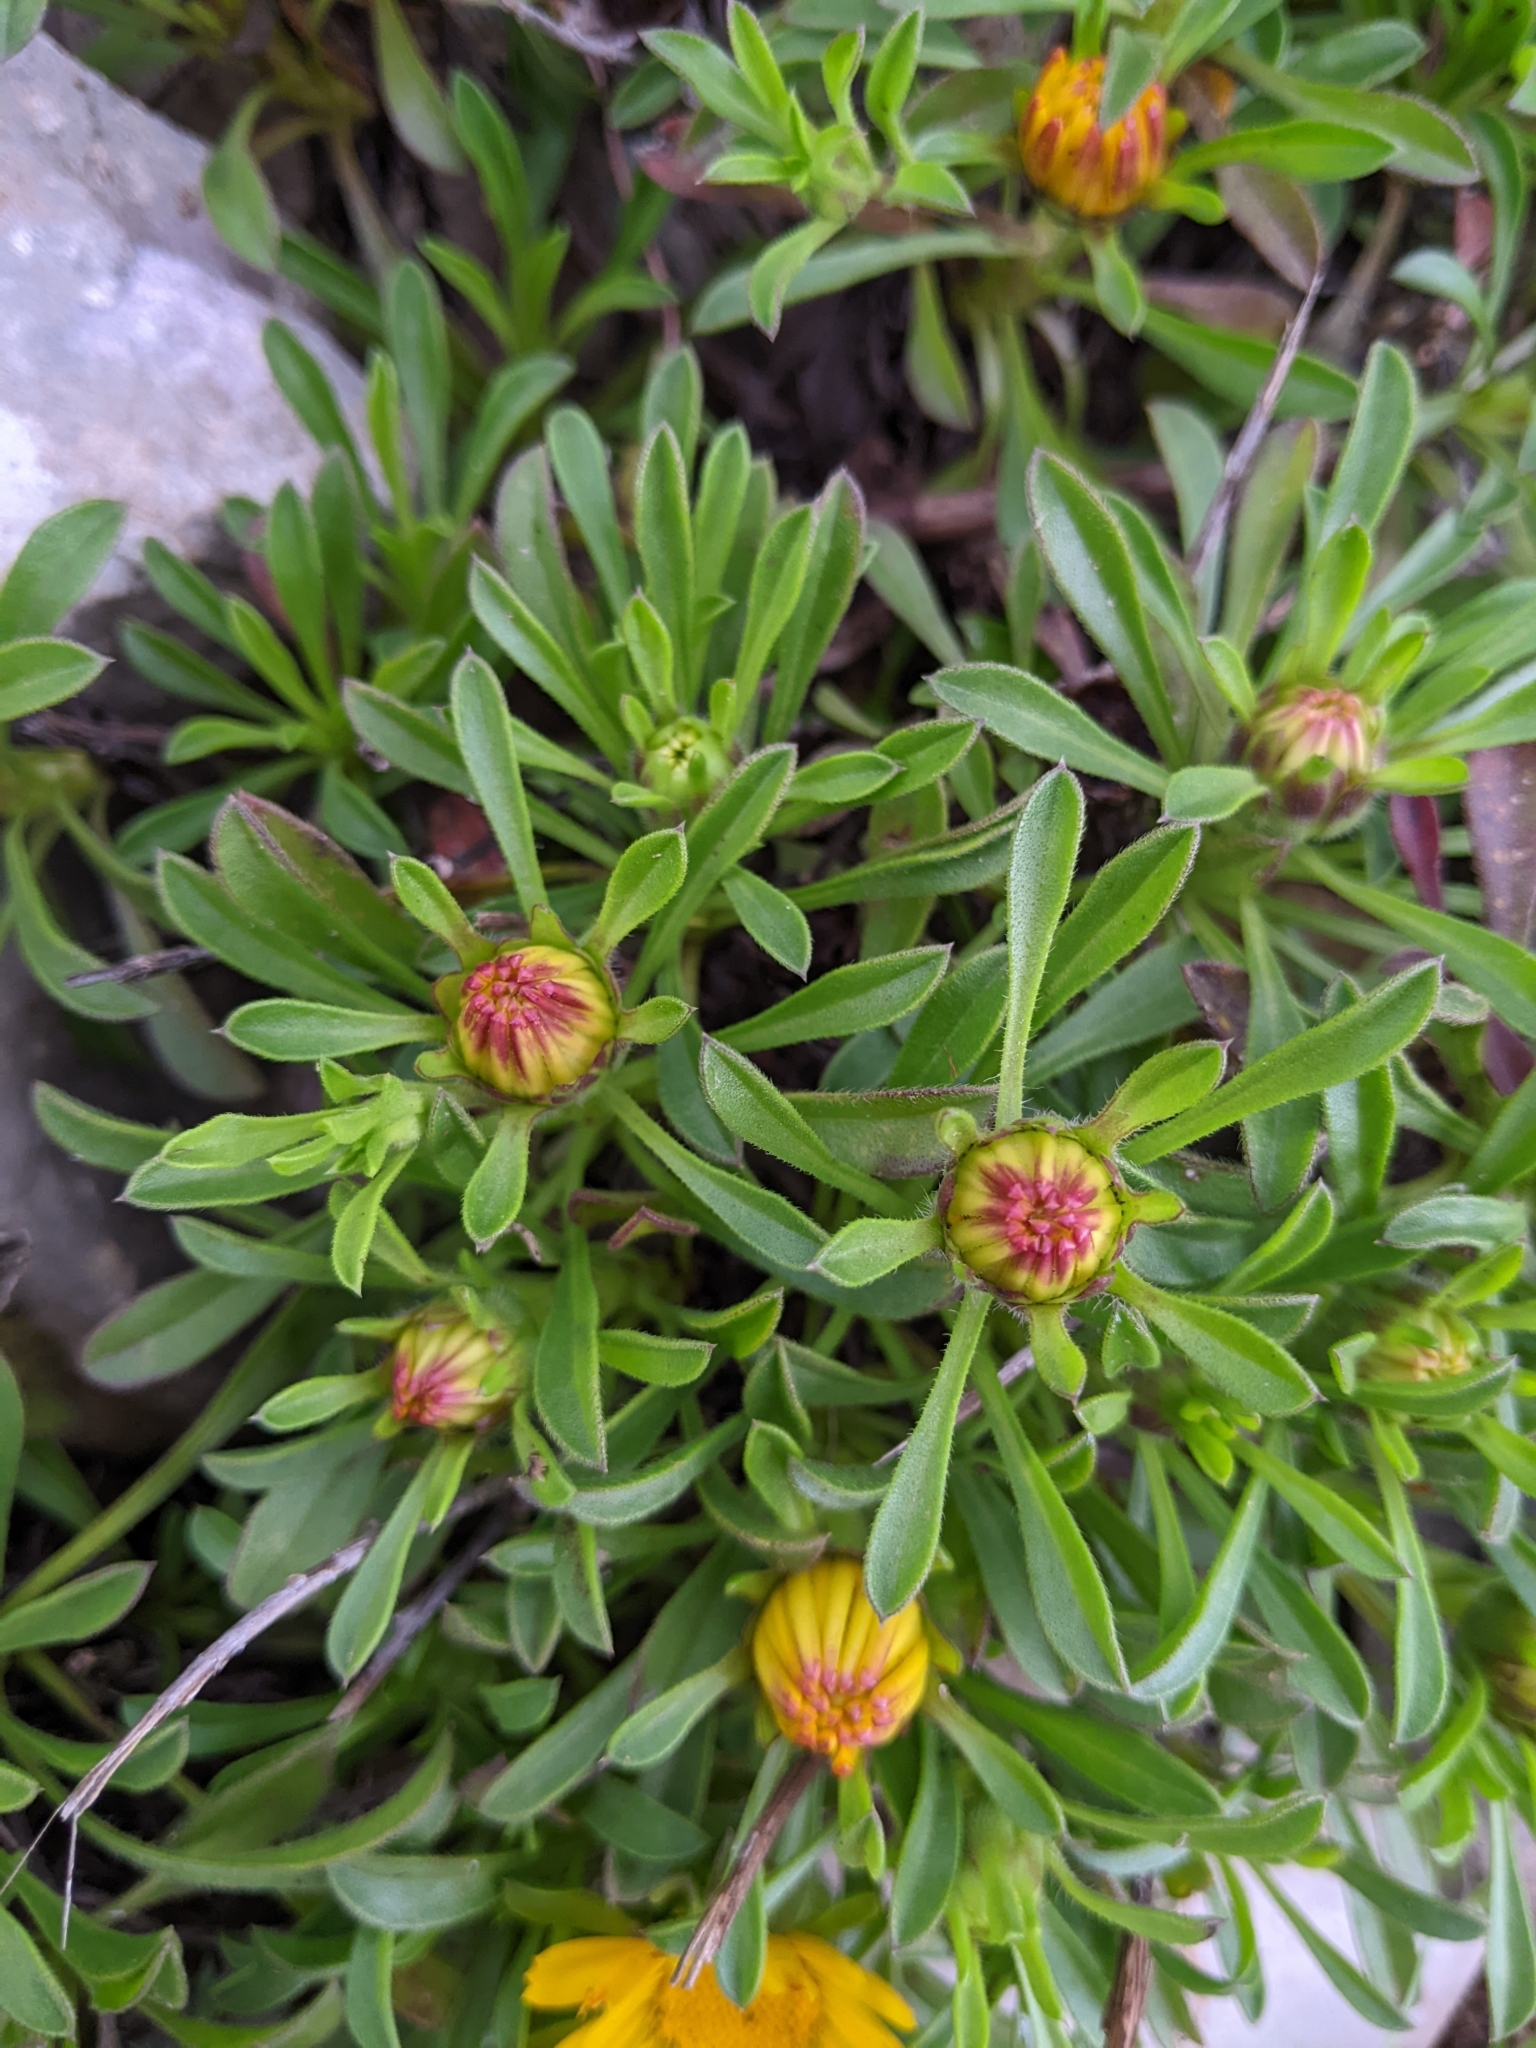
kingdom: Plantae
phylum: Tracheophyta
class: Magnoliopsida
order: Asterales
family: Asteraceae
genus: Pallenis
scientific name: Pallenis maritima
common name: Golden coin daisy
